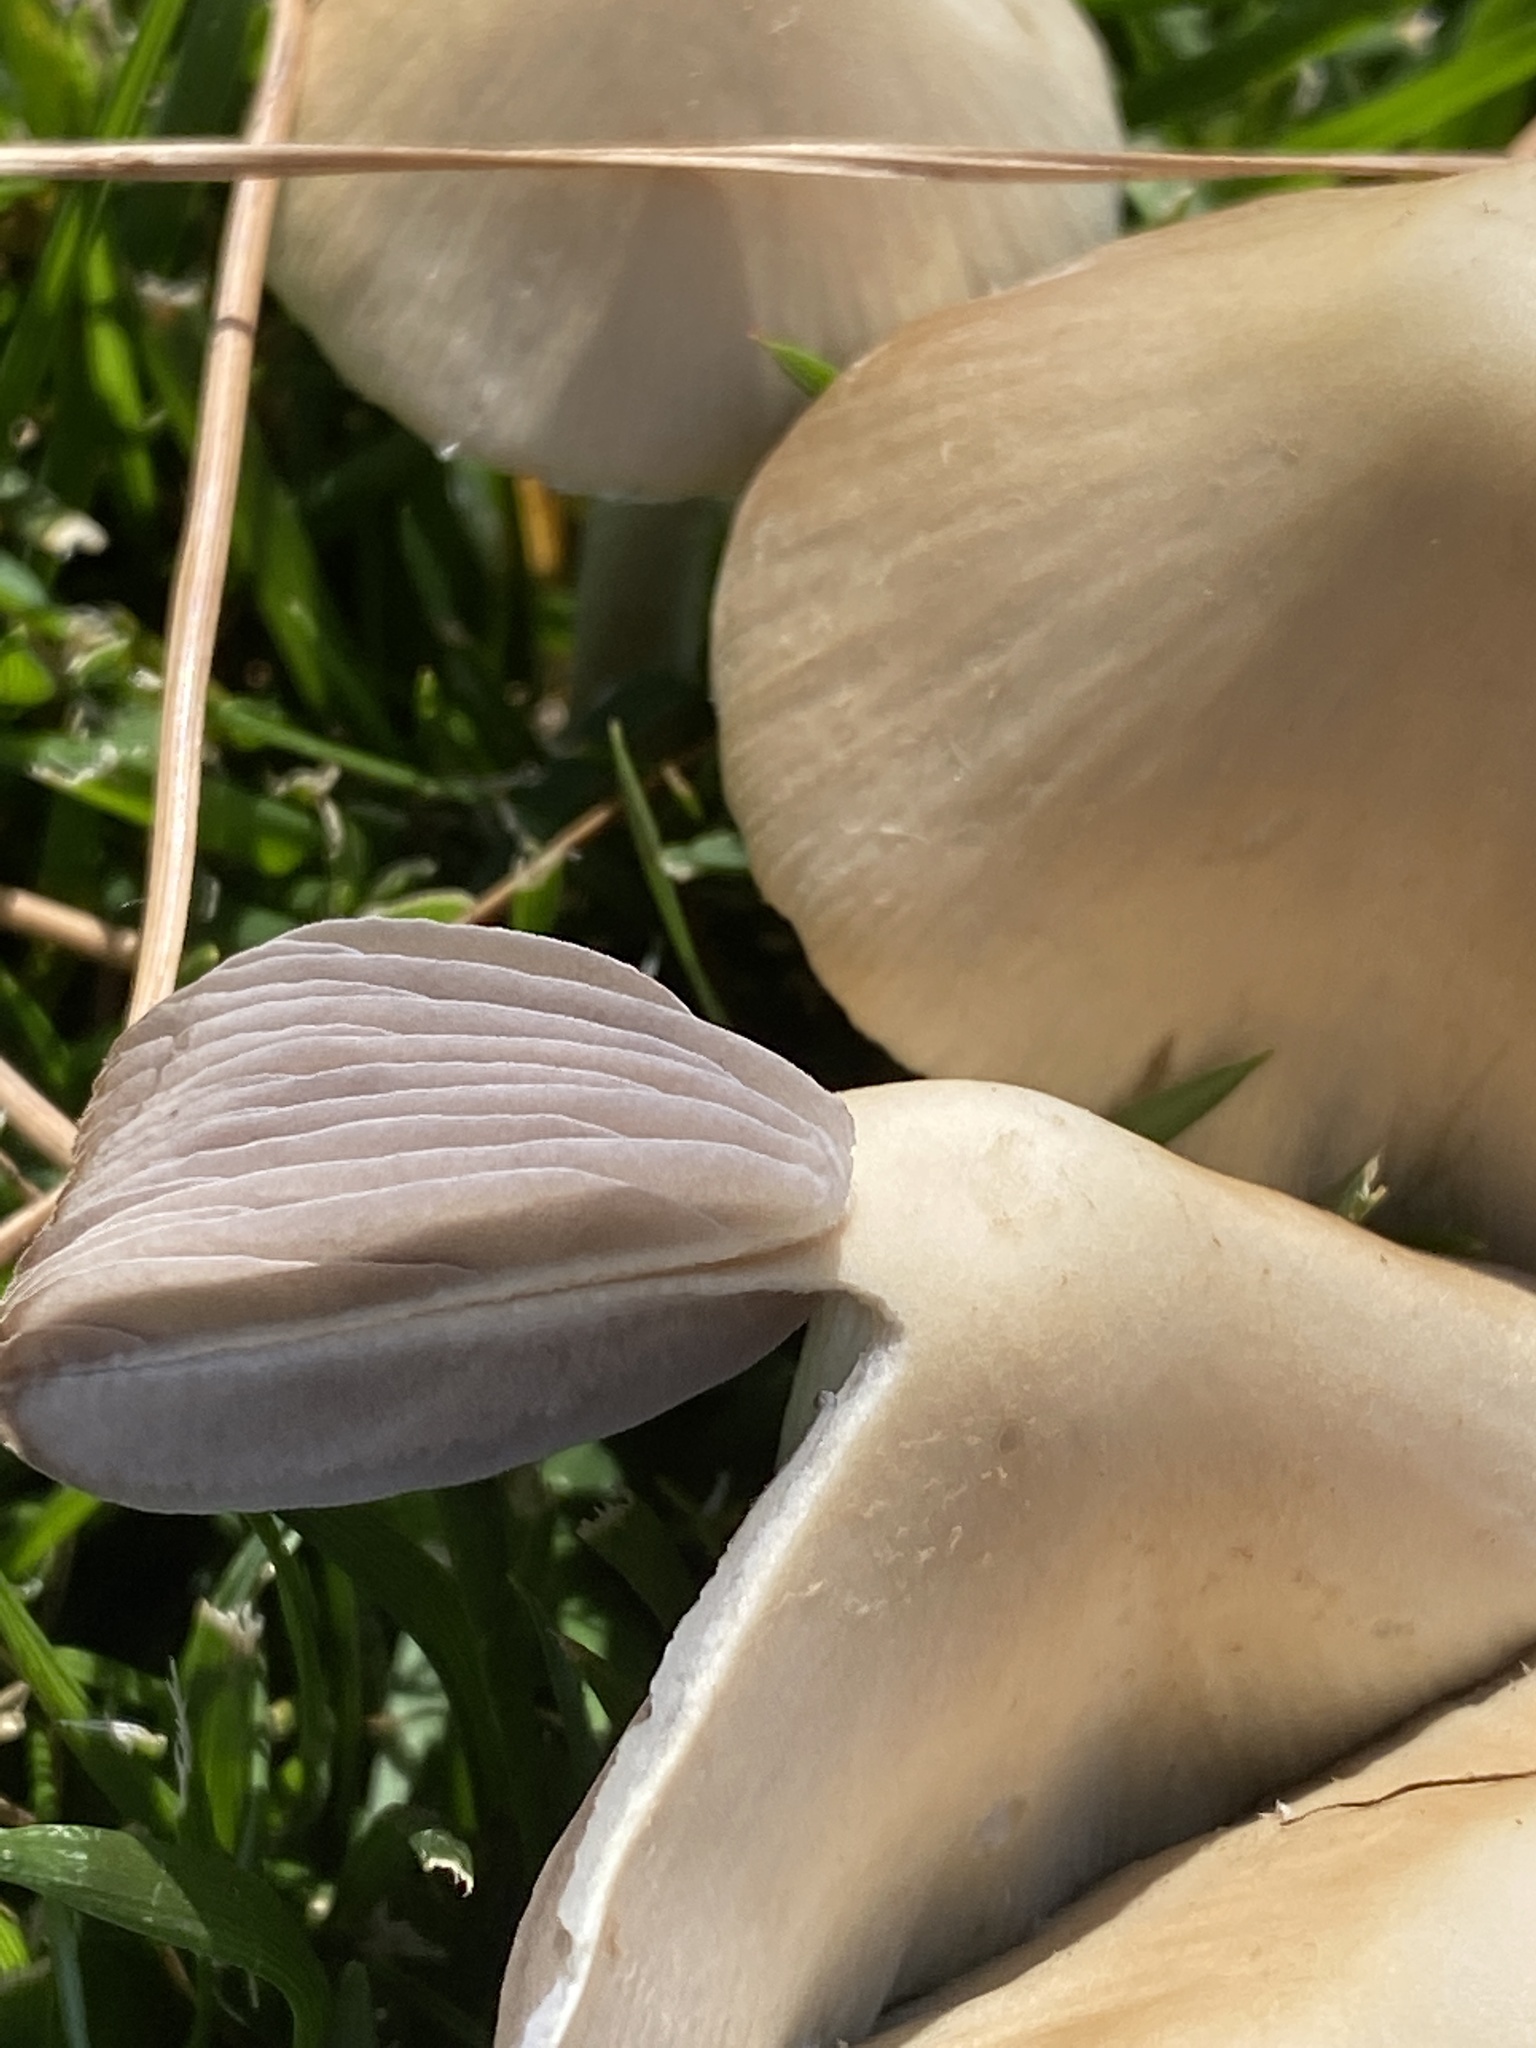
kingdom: Fungi
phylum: Basidiomycota
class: Agaricomycetes
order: Agaricales
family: Psathyrellaceae
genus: Candolleomyces
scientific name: Candolleomyces candolleanus
